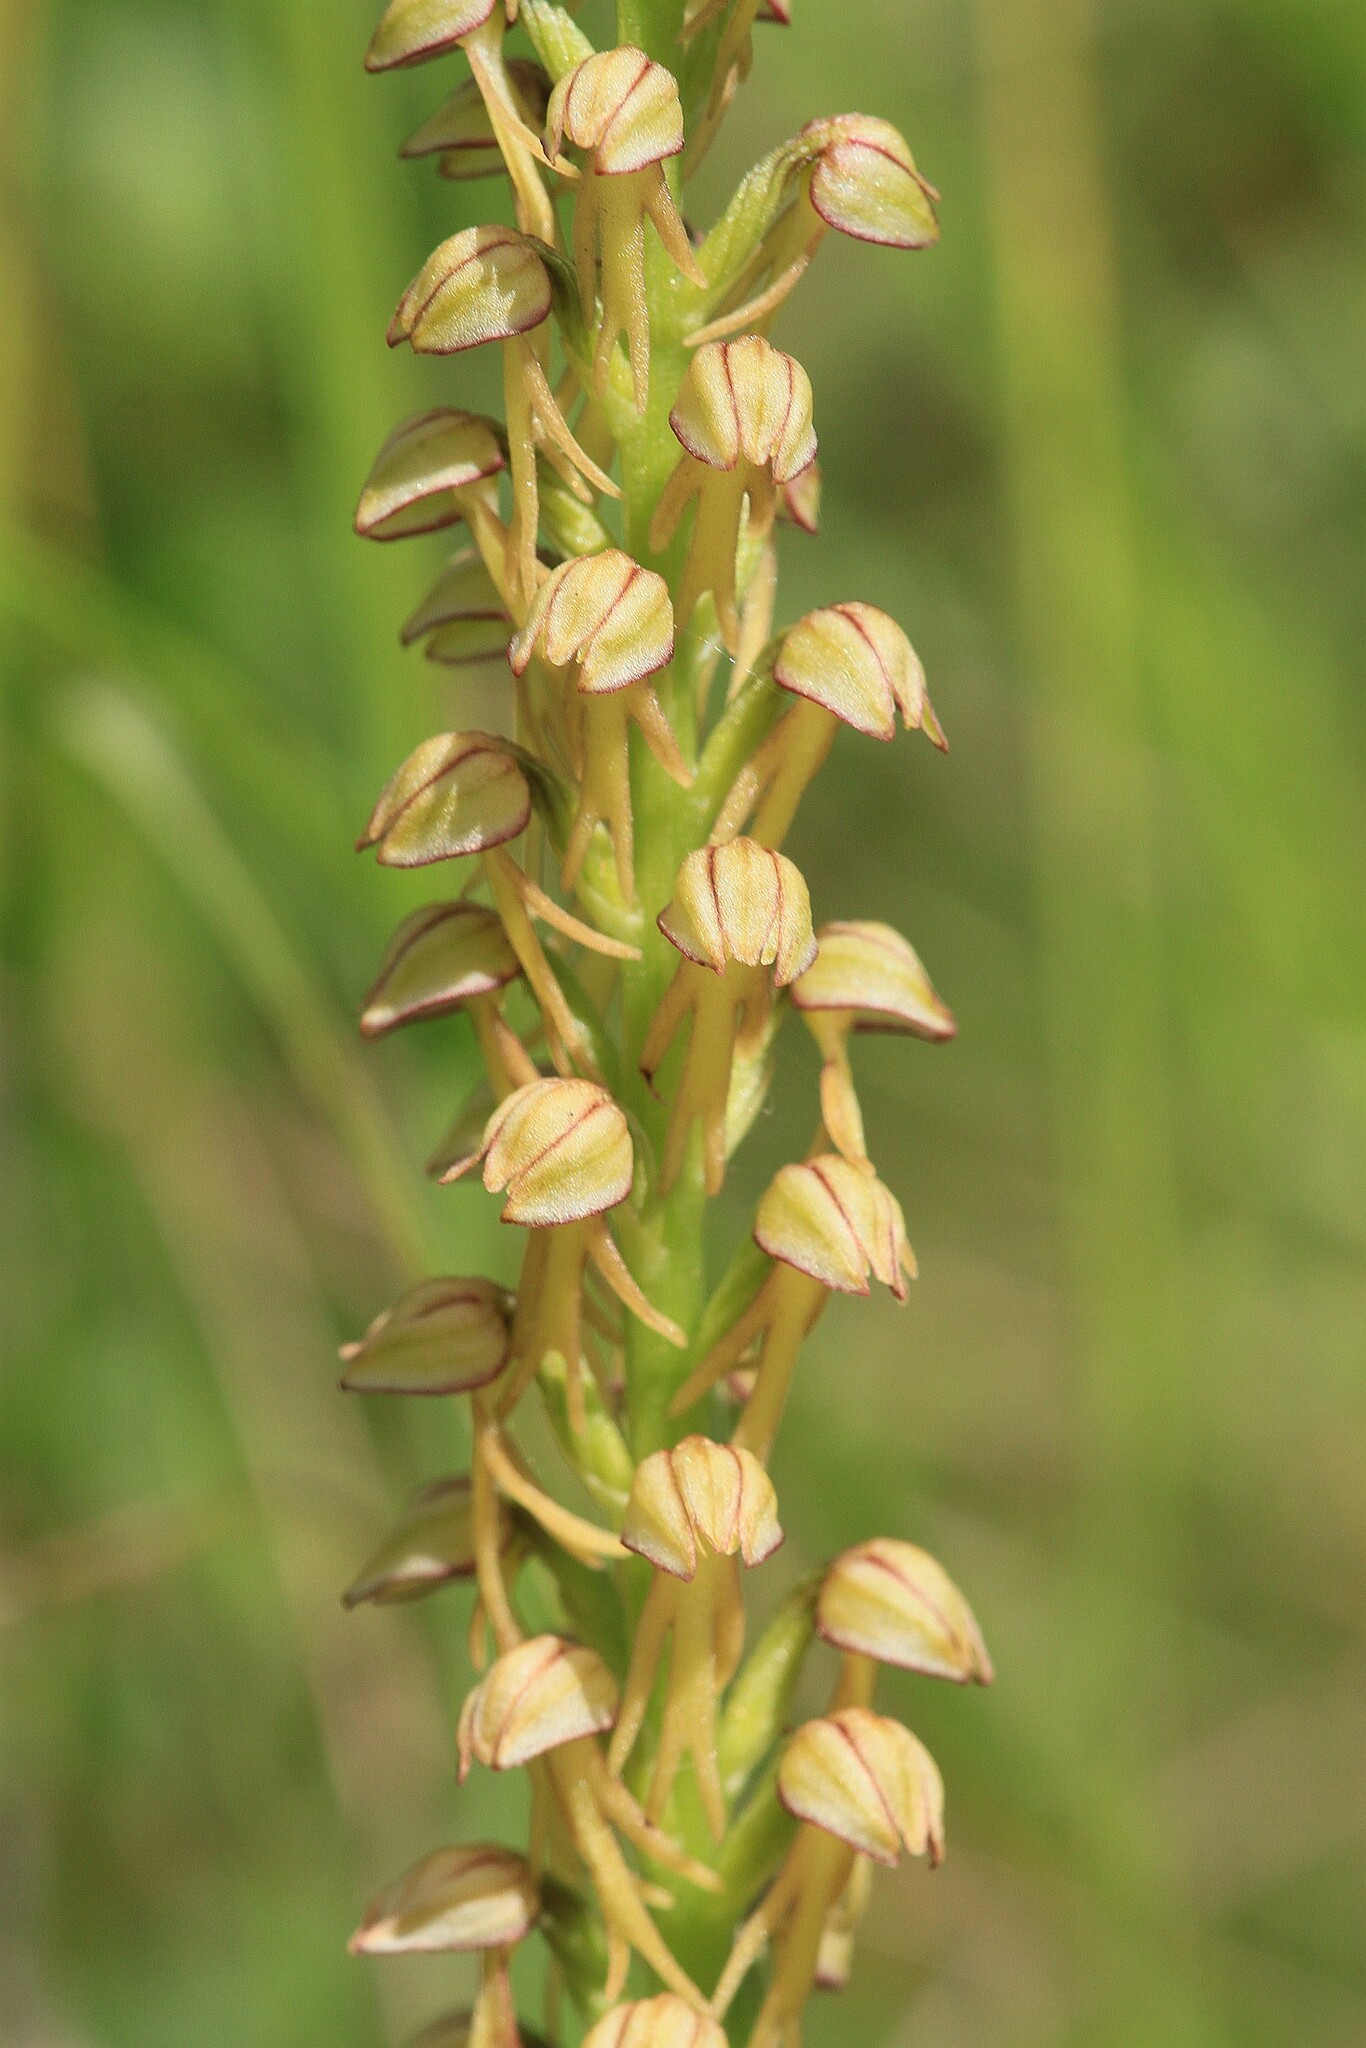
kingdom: Plantae
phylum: Tracheophyta
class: Liliopsida
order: Asparagales
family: Orchidaceae
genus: Orchis
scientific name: Orchis anthropophora
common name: Man orchid
